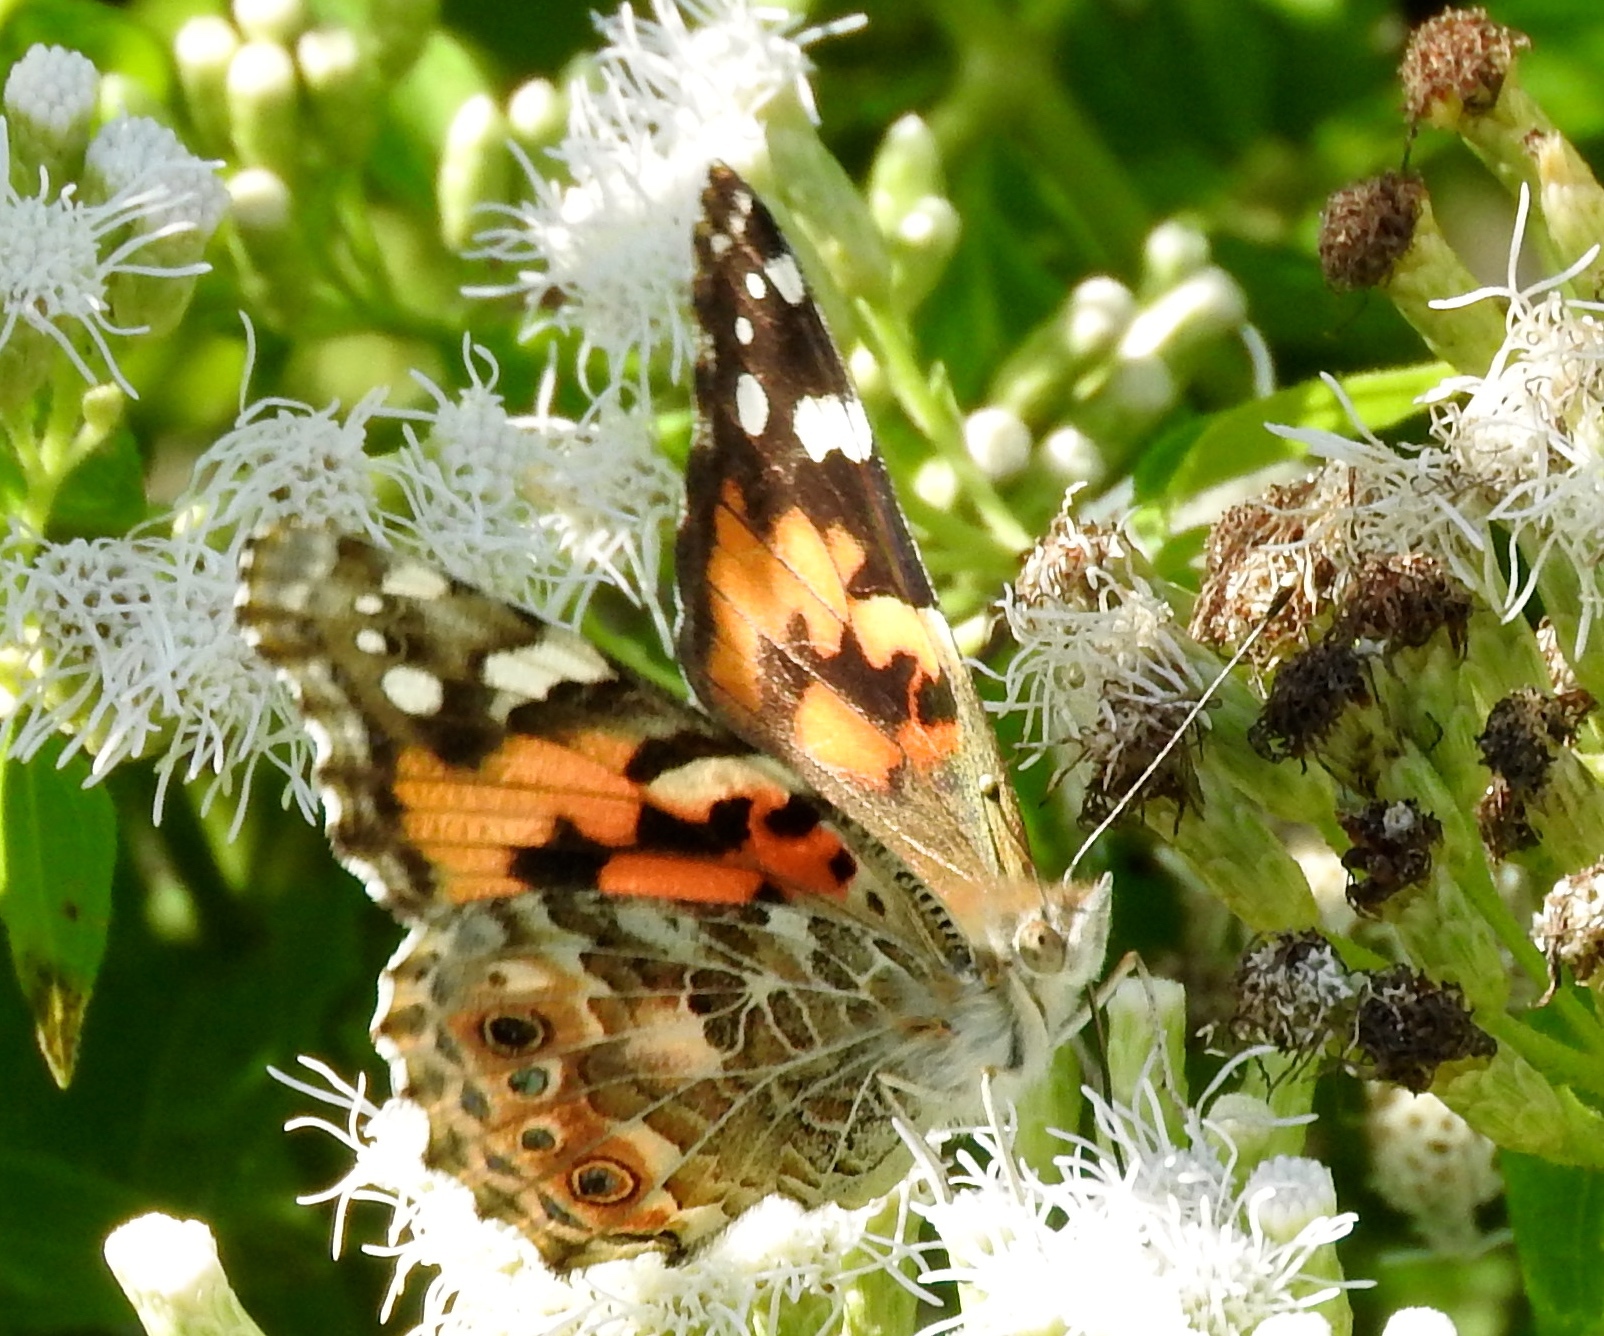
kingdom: Animalia
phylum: Arthropoda
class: Insecta
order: Lepidoptera
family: Nymphalidae
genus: Vanessa
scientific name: Vanessa cardui
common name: Painted lady
